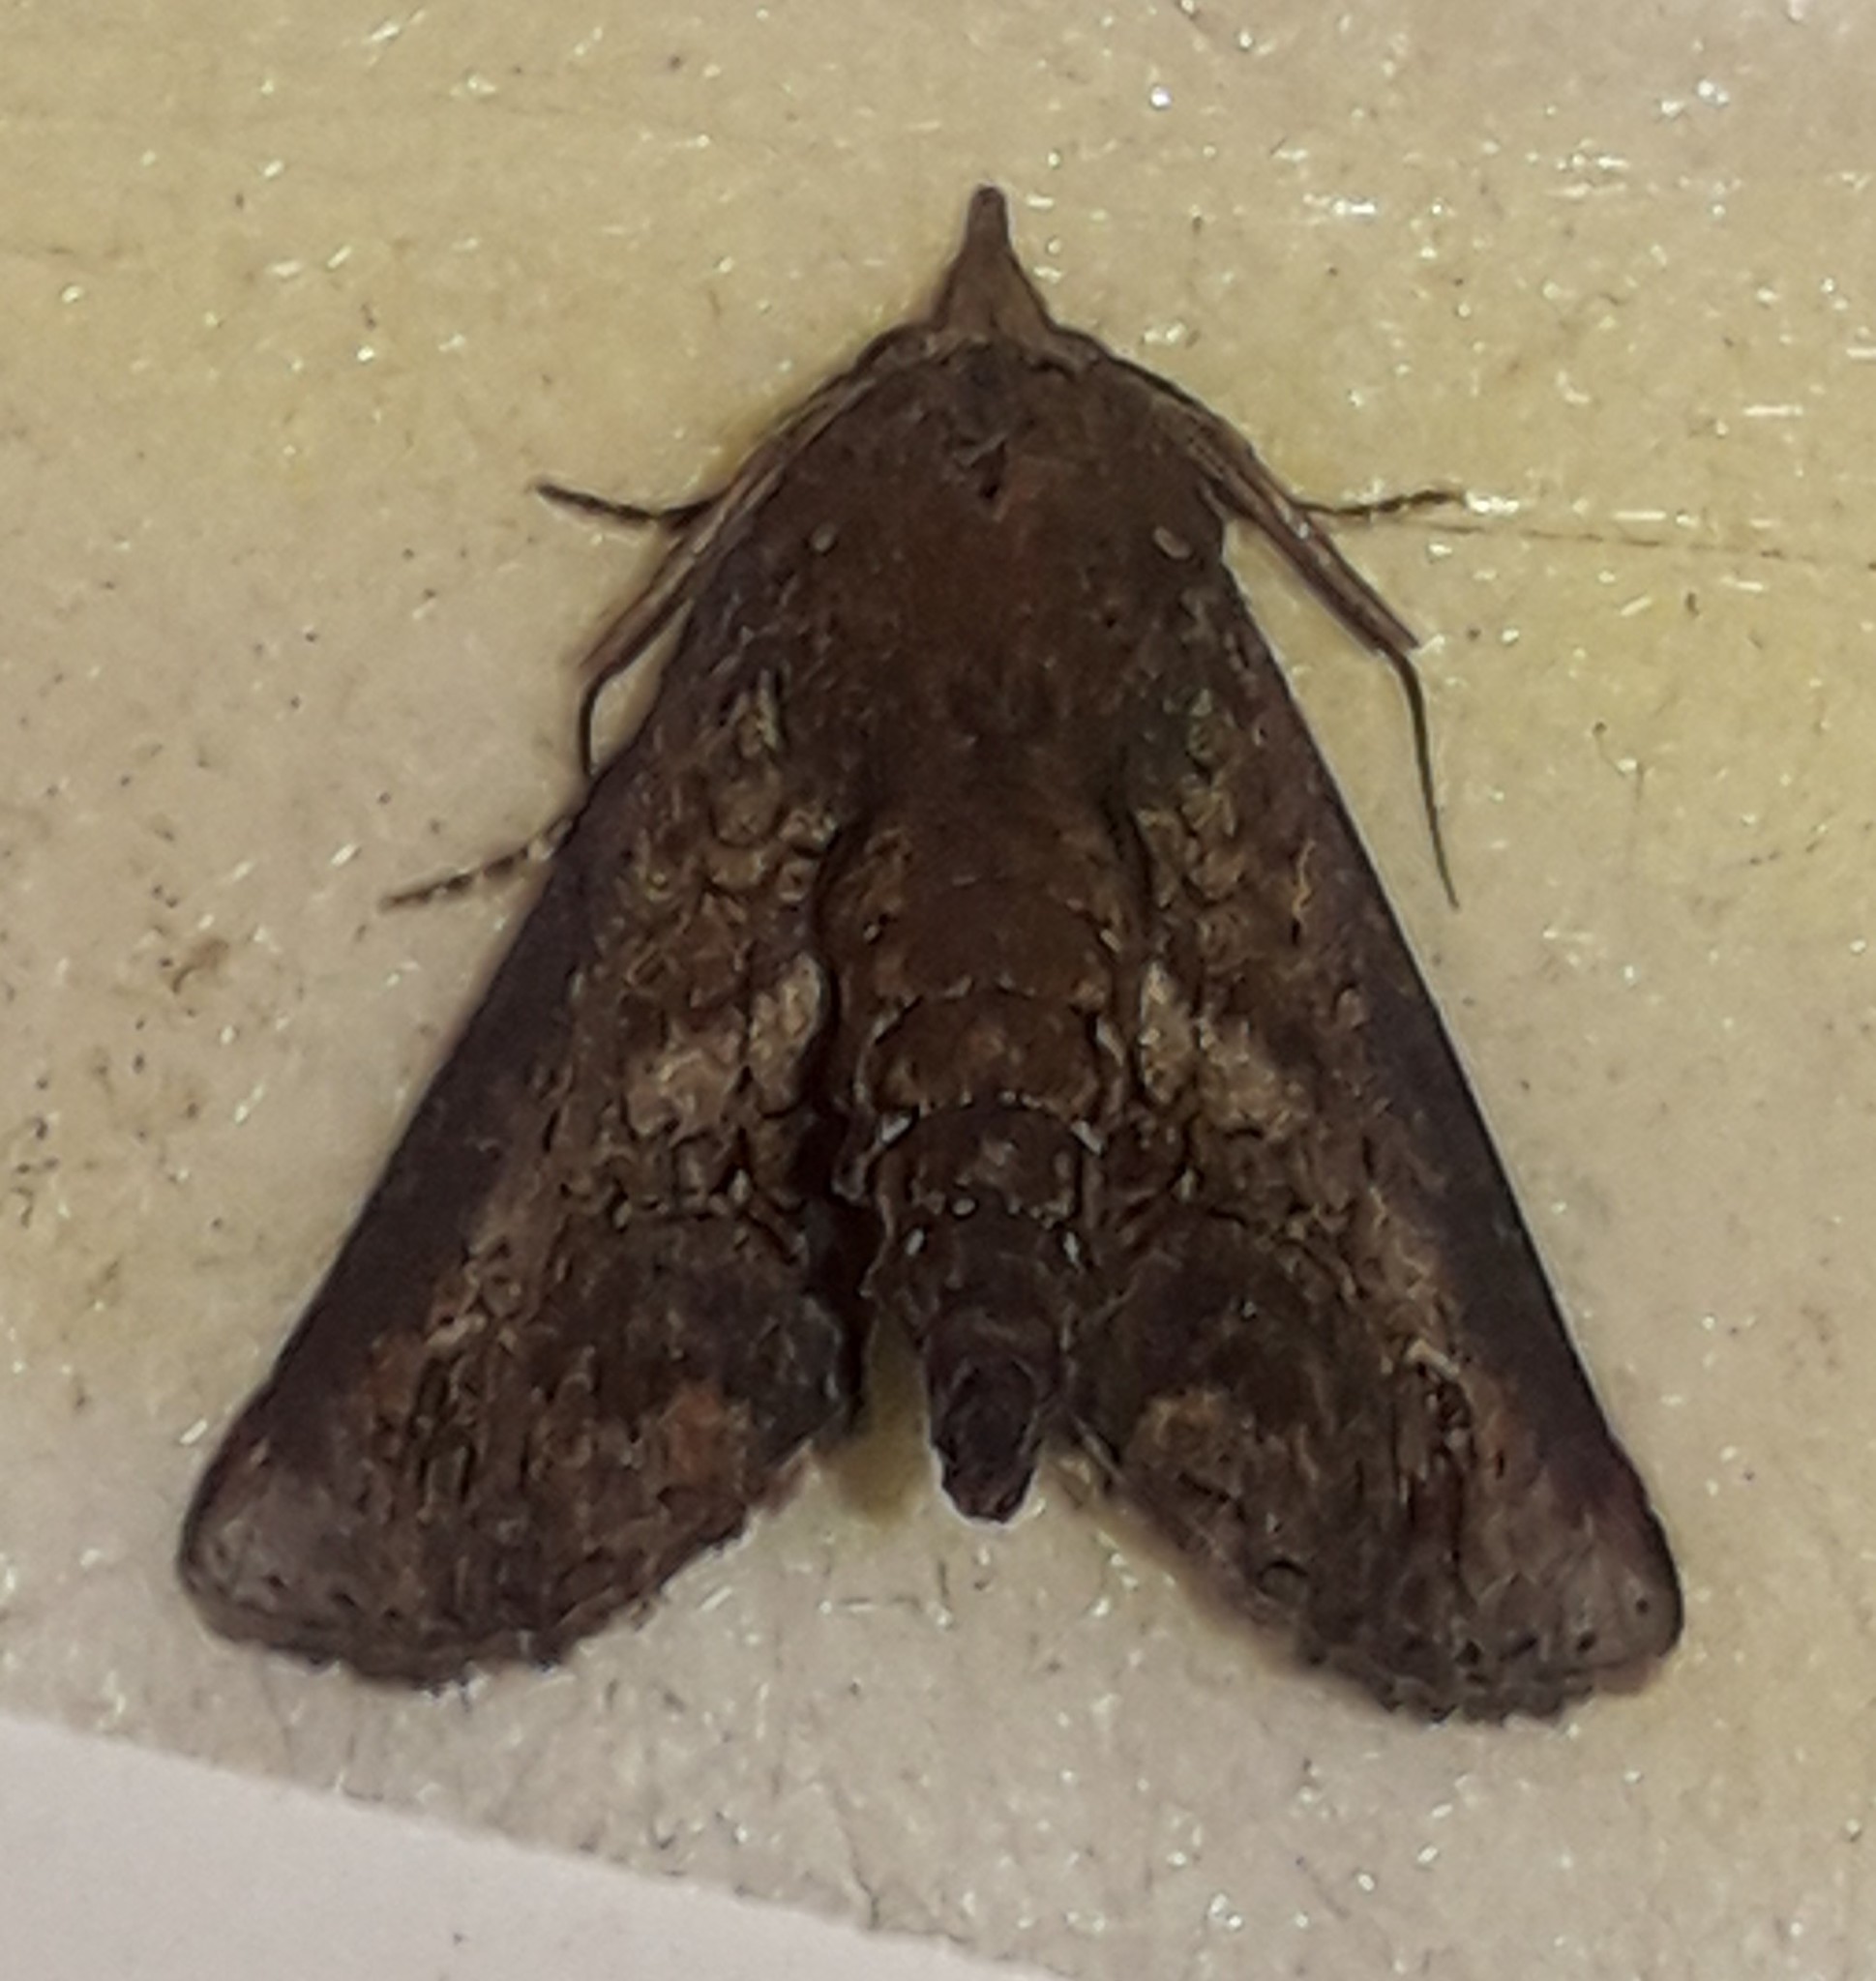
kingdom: Animalia
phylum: Arthropoda
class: Insecta
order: Lepidoptera
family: Euteliidae
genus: Paectes
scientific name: Paectes abrostoloides
